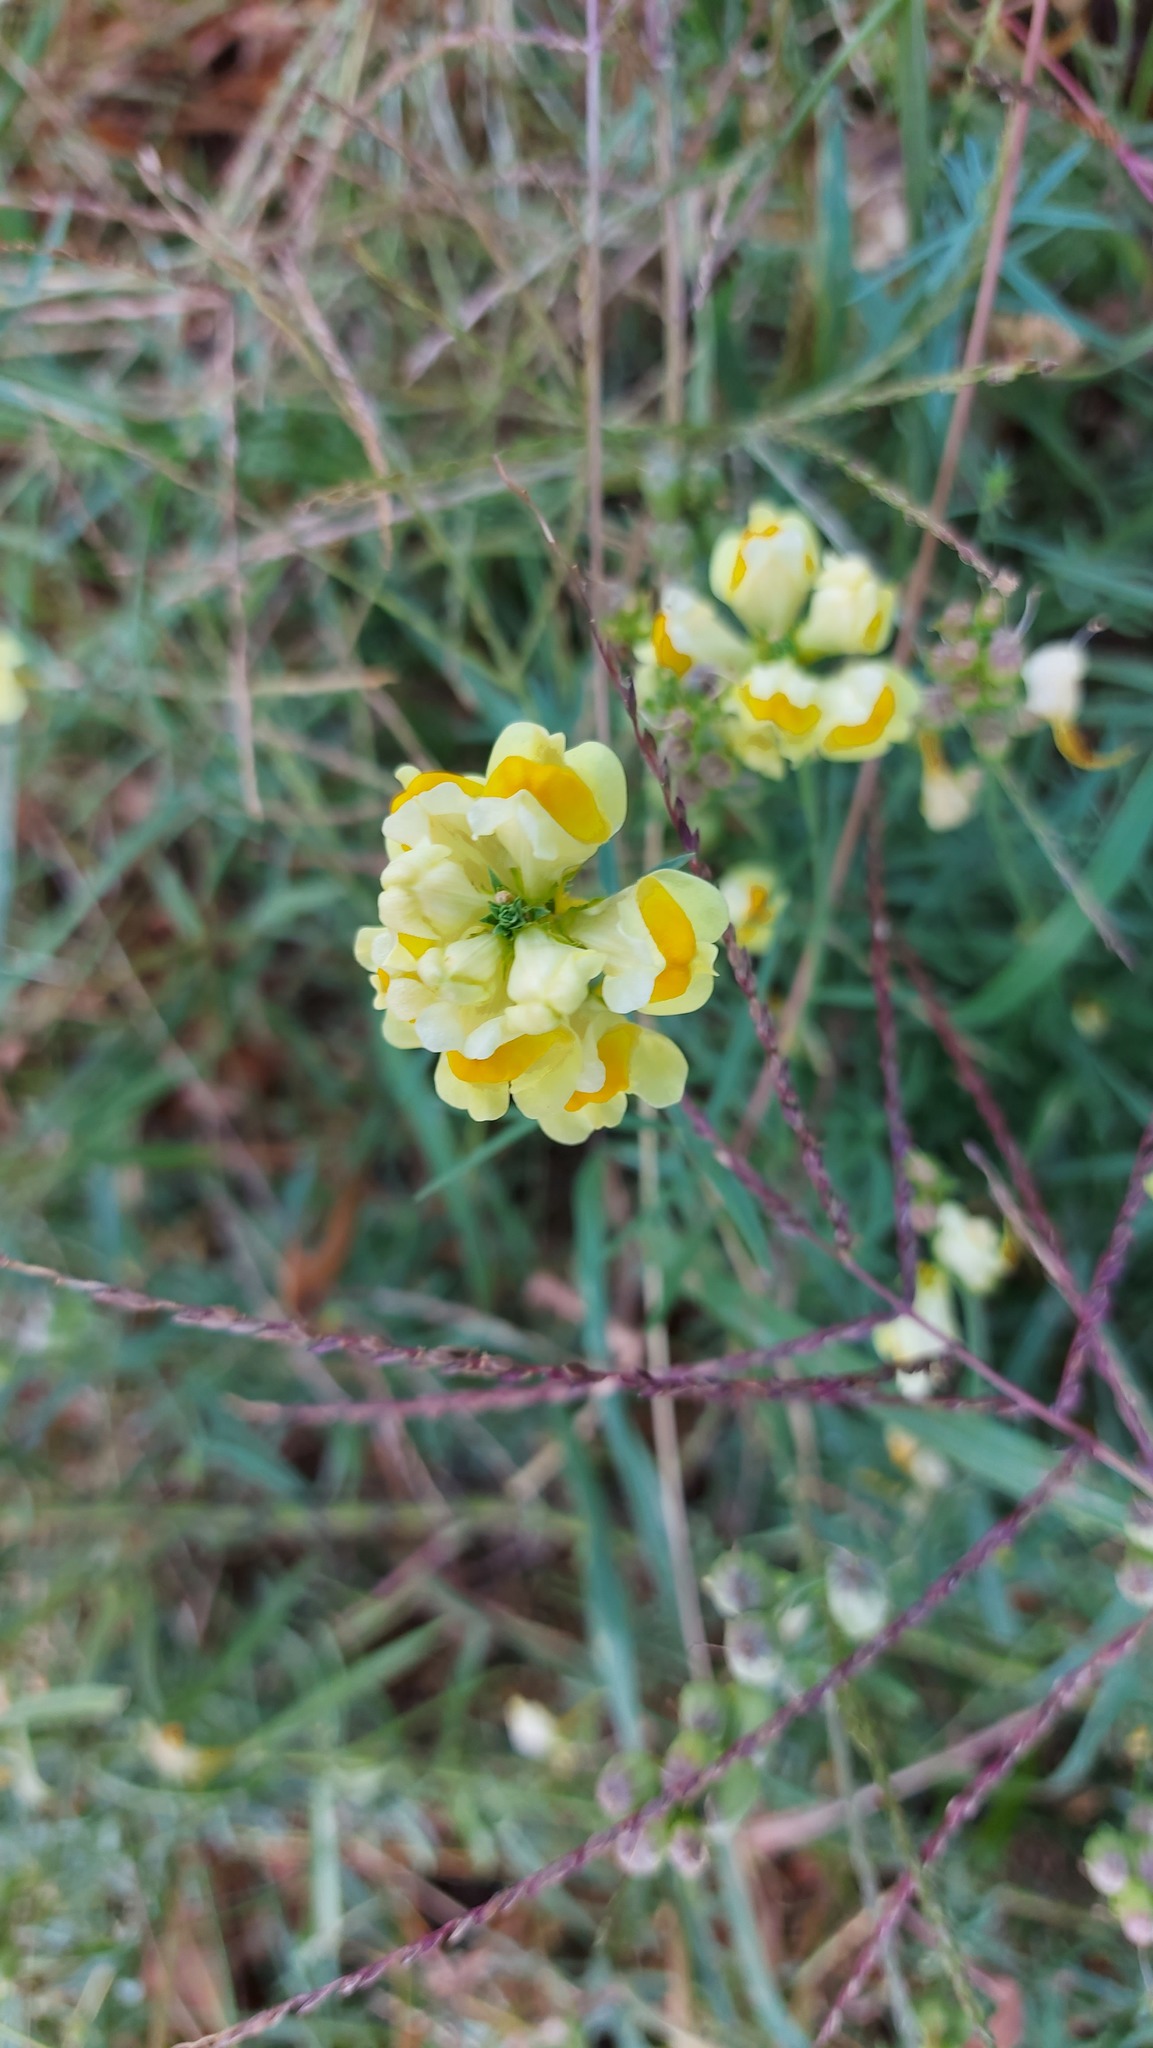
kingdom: Plantae
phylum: Tracheophyta
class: Magnoliopsida
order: Lamiales
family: Plantaginaceae
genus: Linaria
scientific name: Linaria vulgaris
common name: Butter and eggs
